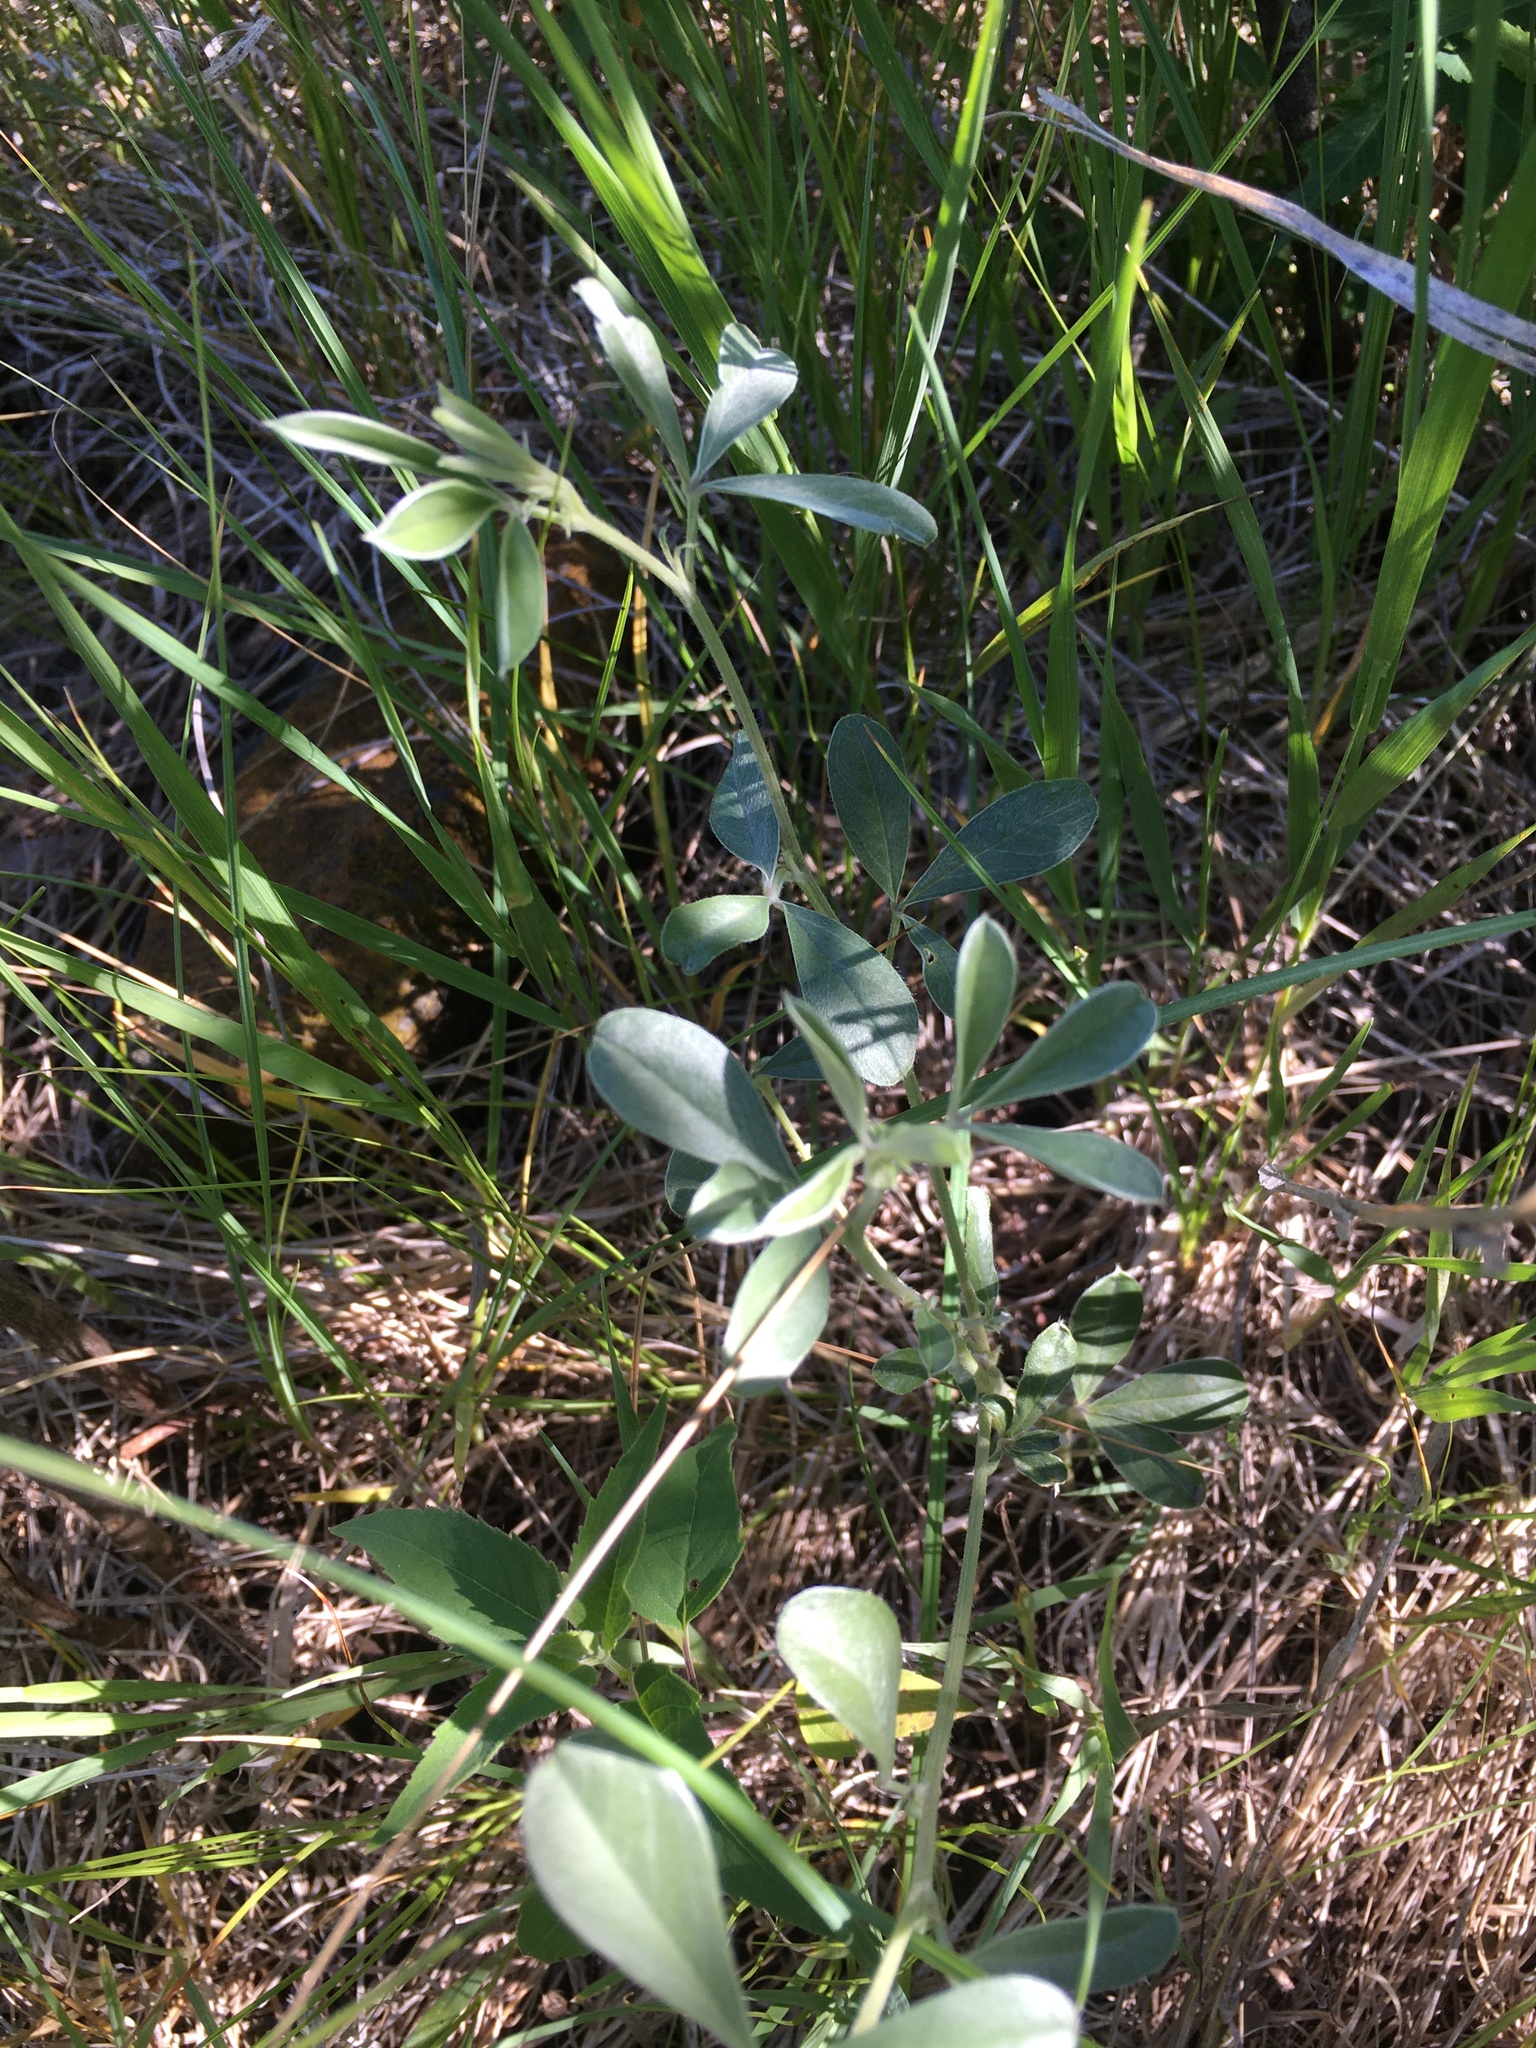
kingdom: Plantae
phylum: Tracheophyta
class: Magnoliopsida
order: Fabales
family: Fabaceae
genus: Pediomelum
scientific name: Pediomelum argophyllum
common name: Silver-leaved indian breadroot
